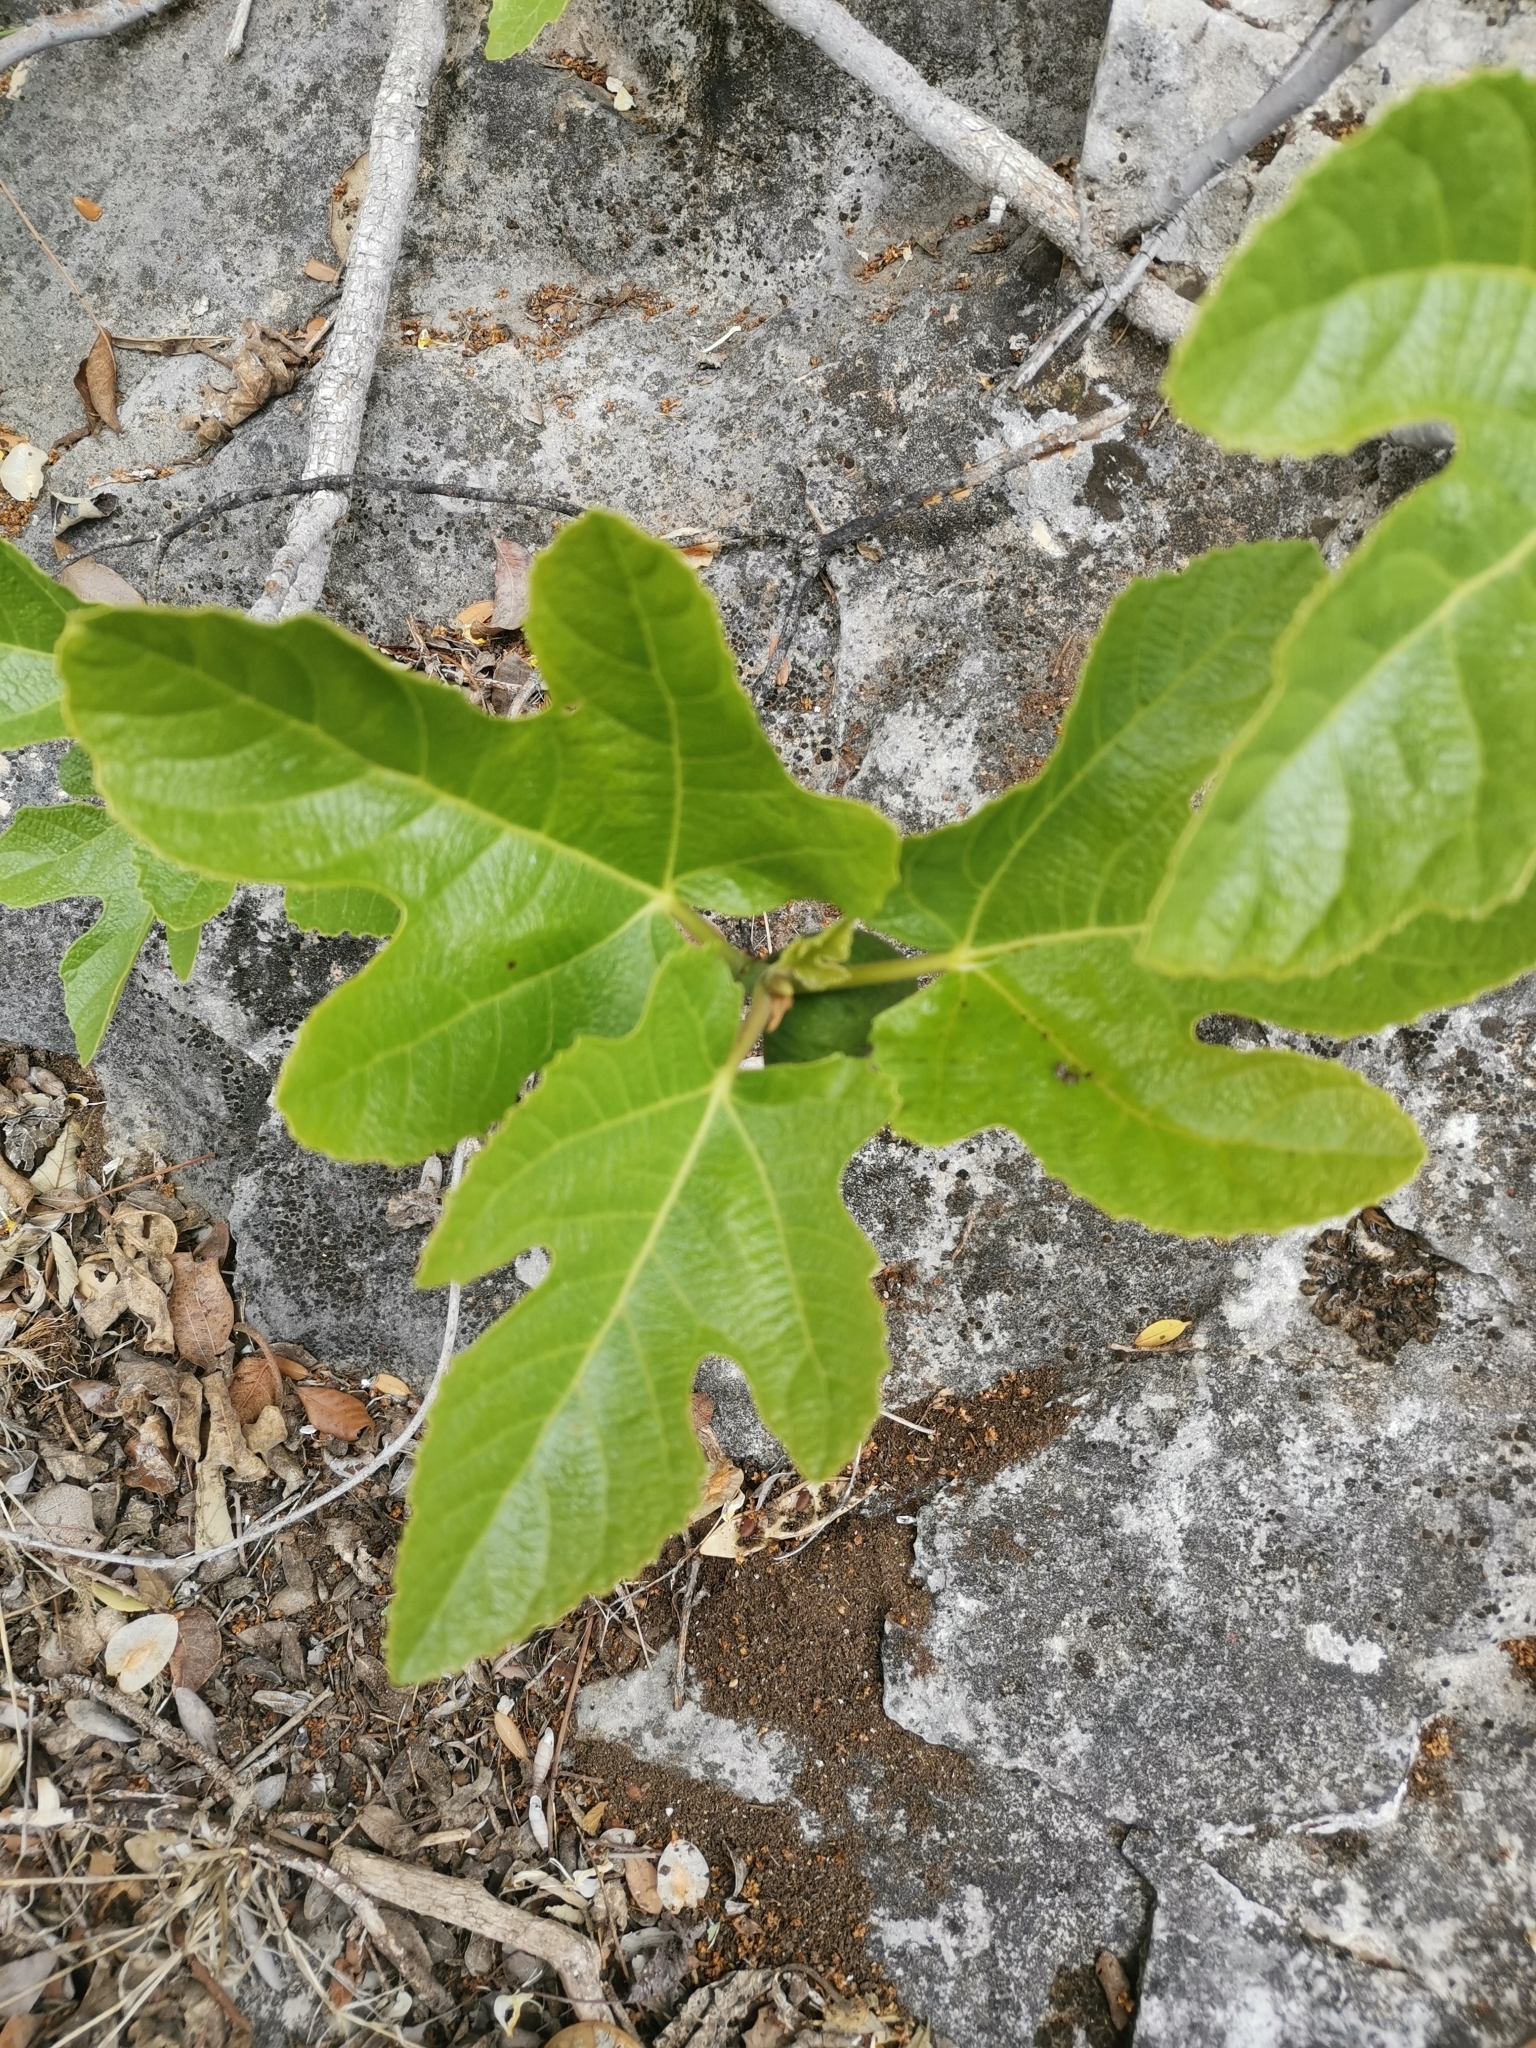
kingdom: Plantae
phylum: Tracheophyta
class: Magnoliopsida
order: Rosales
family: Moraceae
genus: Ficus
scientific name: Ficus carica
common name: Fig
